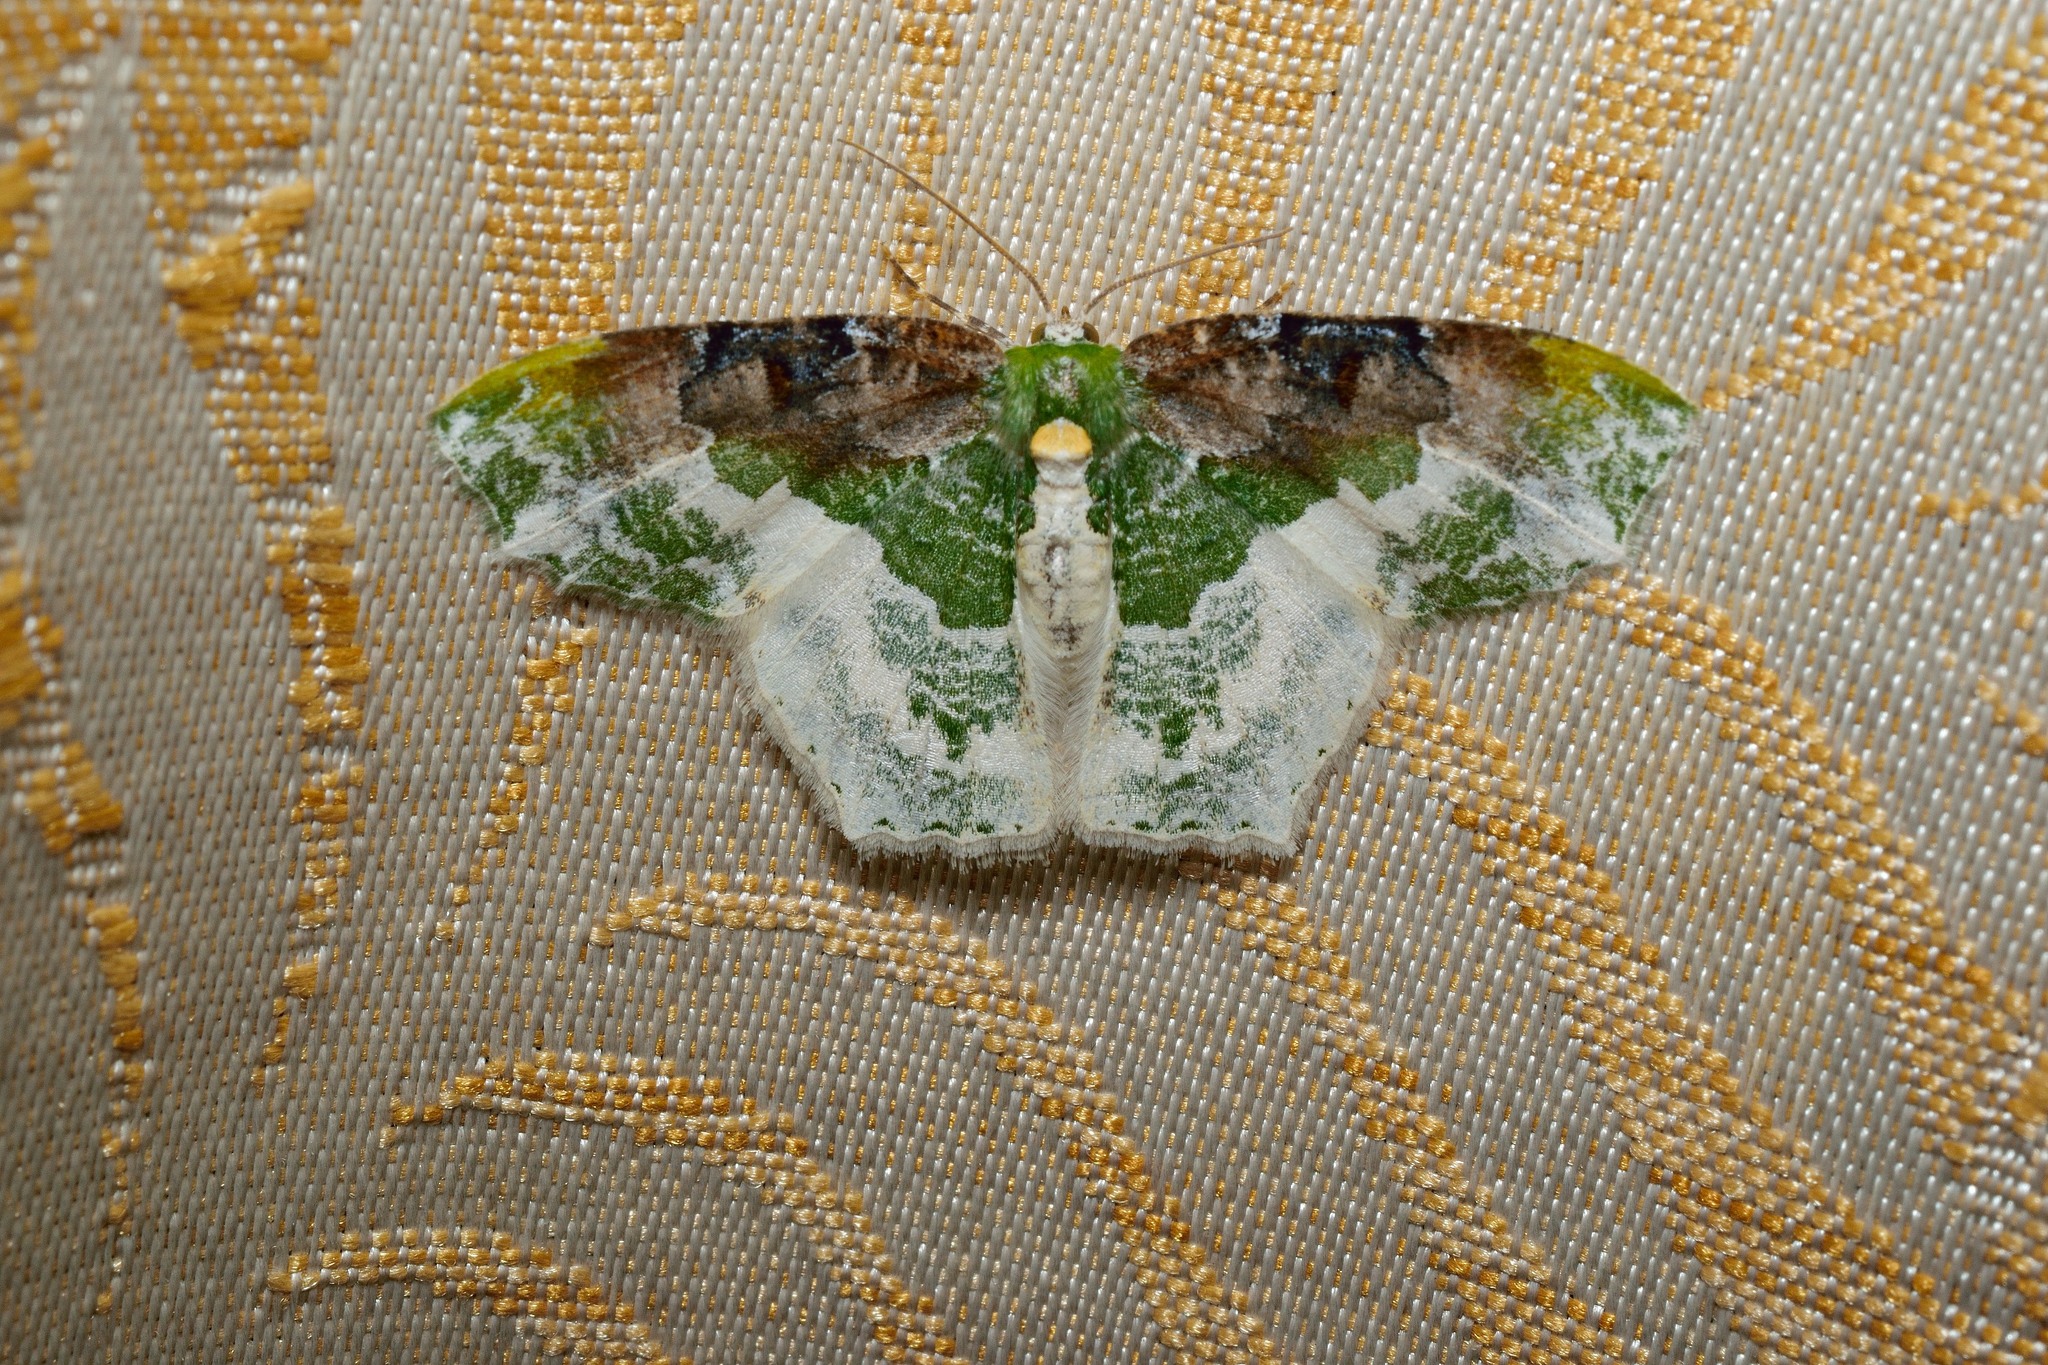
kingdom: Animalia
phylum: Arthropoda
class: Insecta
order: Lepidoptera
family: Geometridae
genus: Eucyclodes
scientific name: Eucyclodes semialba
